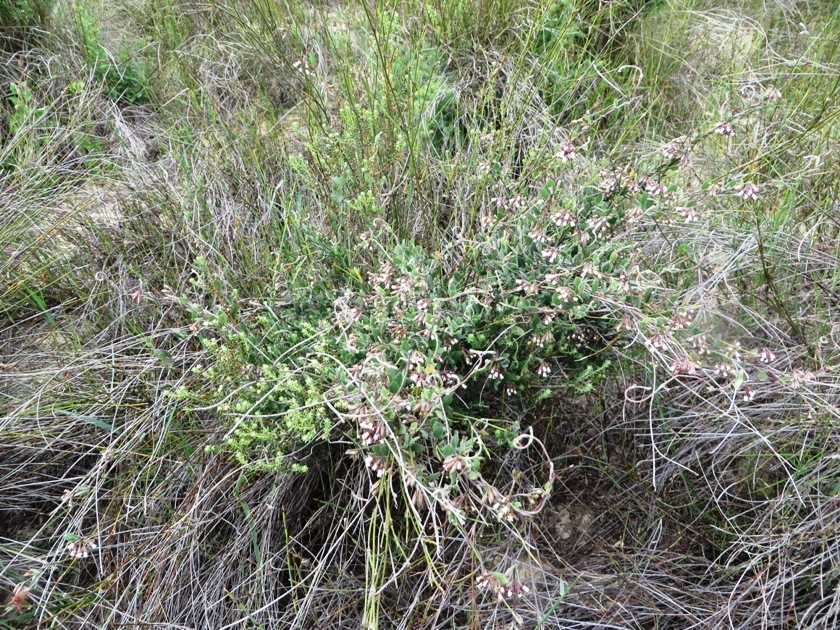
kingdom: Plantae
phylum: Tracheophyta
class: Magnoliopsida
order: Gentianales
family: Apocynaceae
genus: Cynanchum
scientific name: Cynanchum africanum
